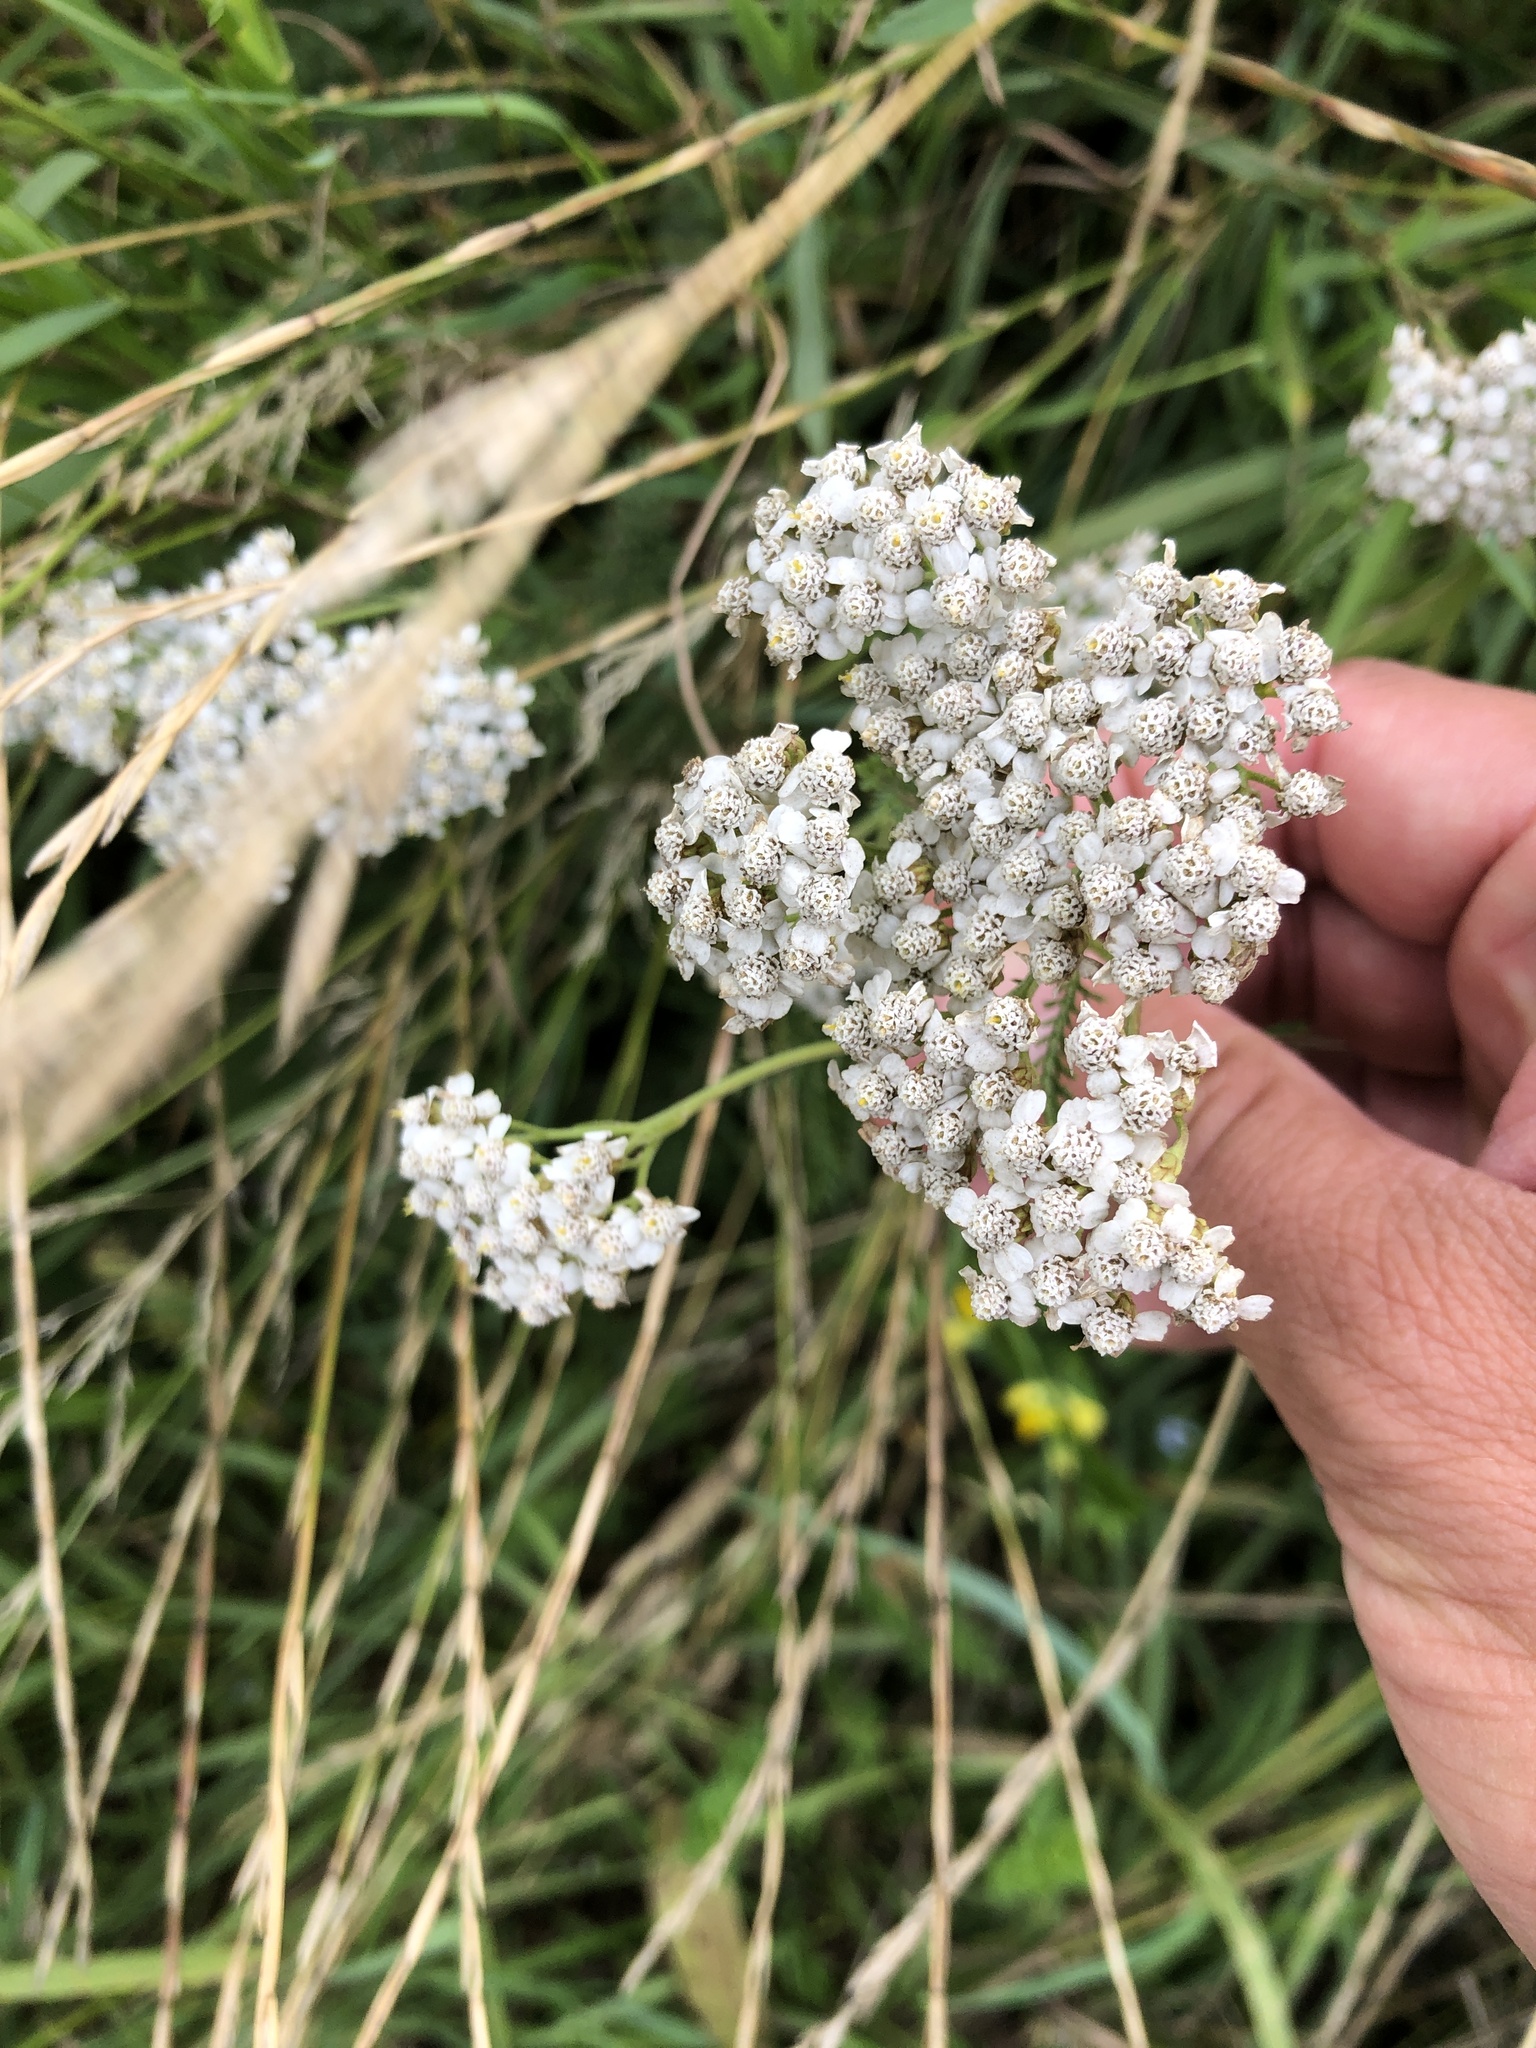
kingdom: Plantae
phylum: Tracheophyta
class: Magnoliopsida
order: Asterales
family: Asteraceae
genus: Achillea
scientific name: Achillea millefolium
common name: Yarrow
